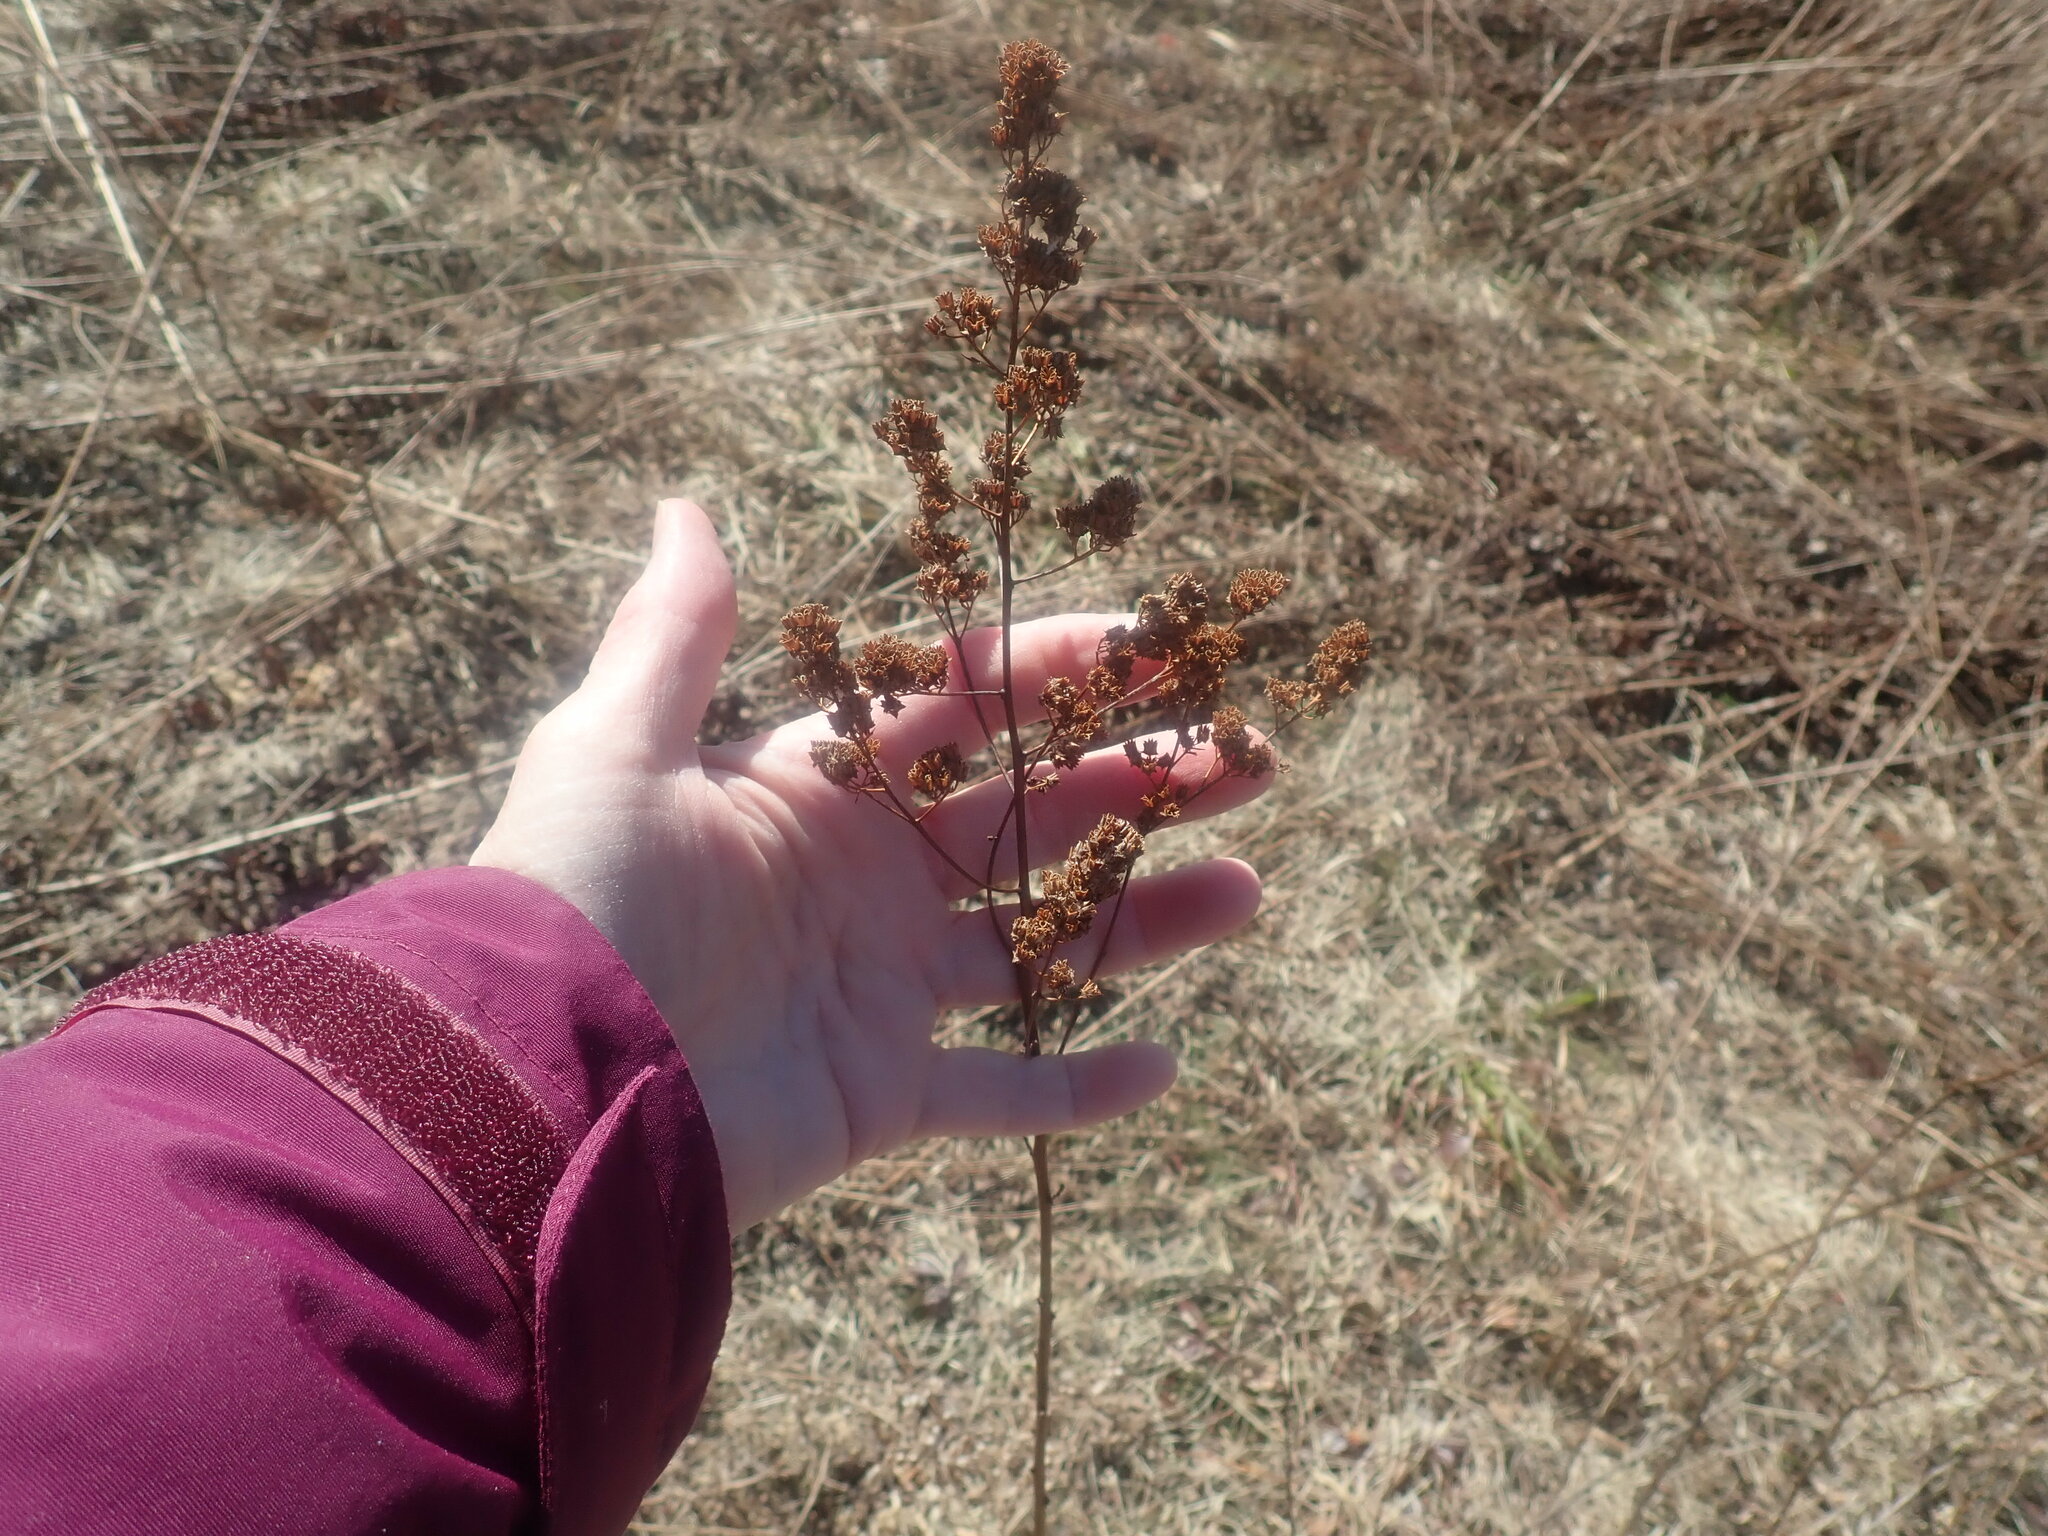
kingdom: Plantae
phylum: Tracheophyta
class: Magnoliopsida
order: Rosales
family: Rosaceae
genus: Spiraea
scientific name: Spiraea alba
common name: Pale bridewort
